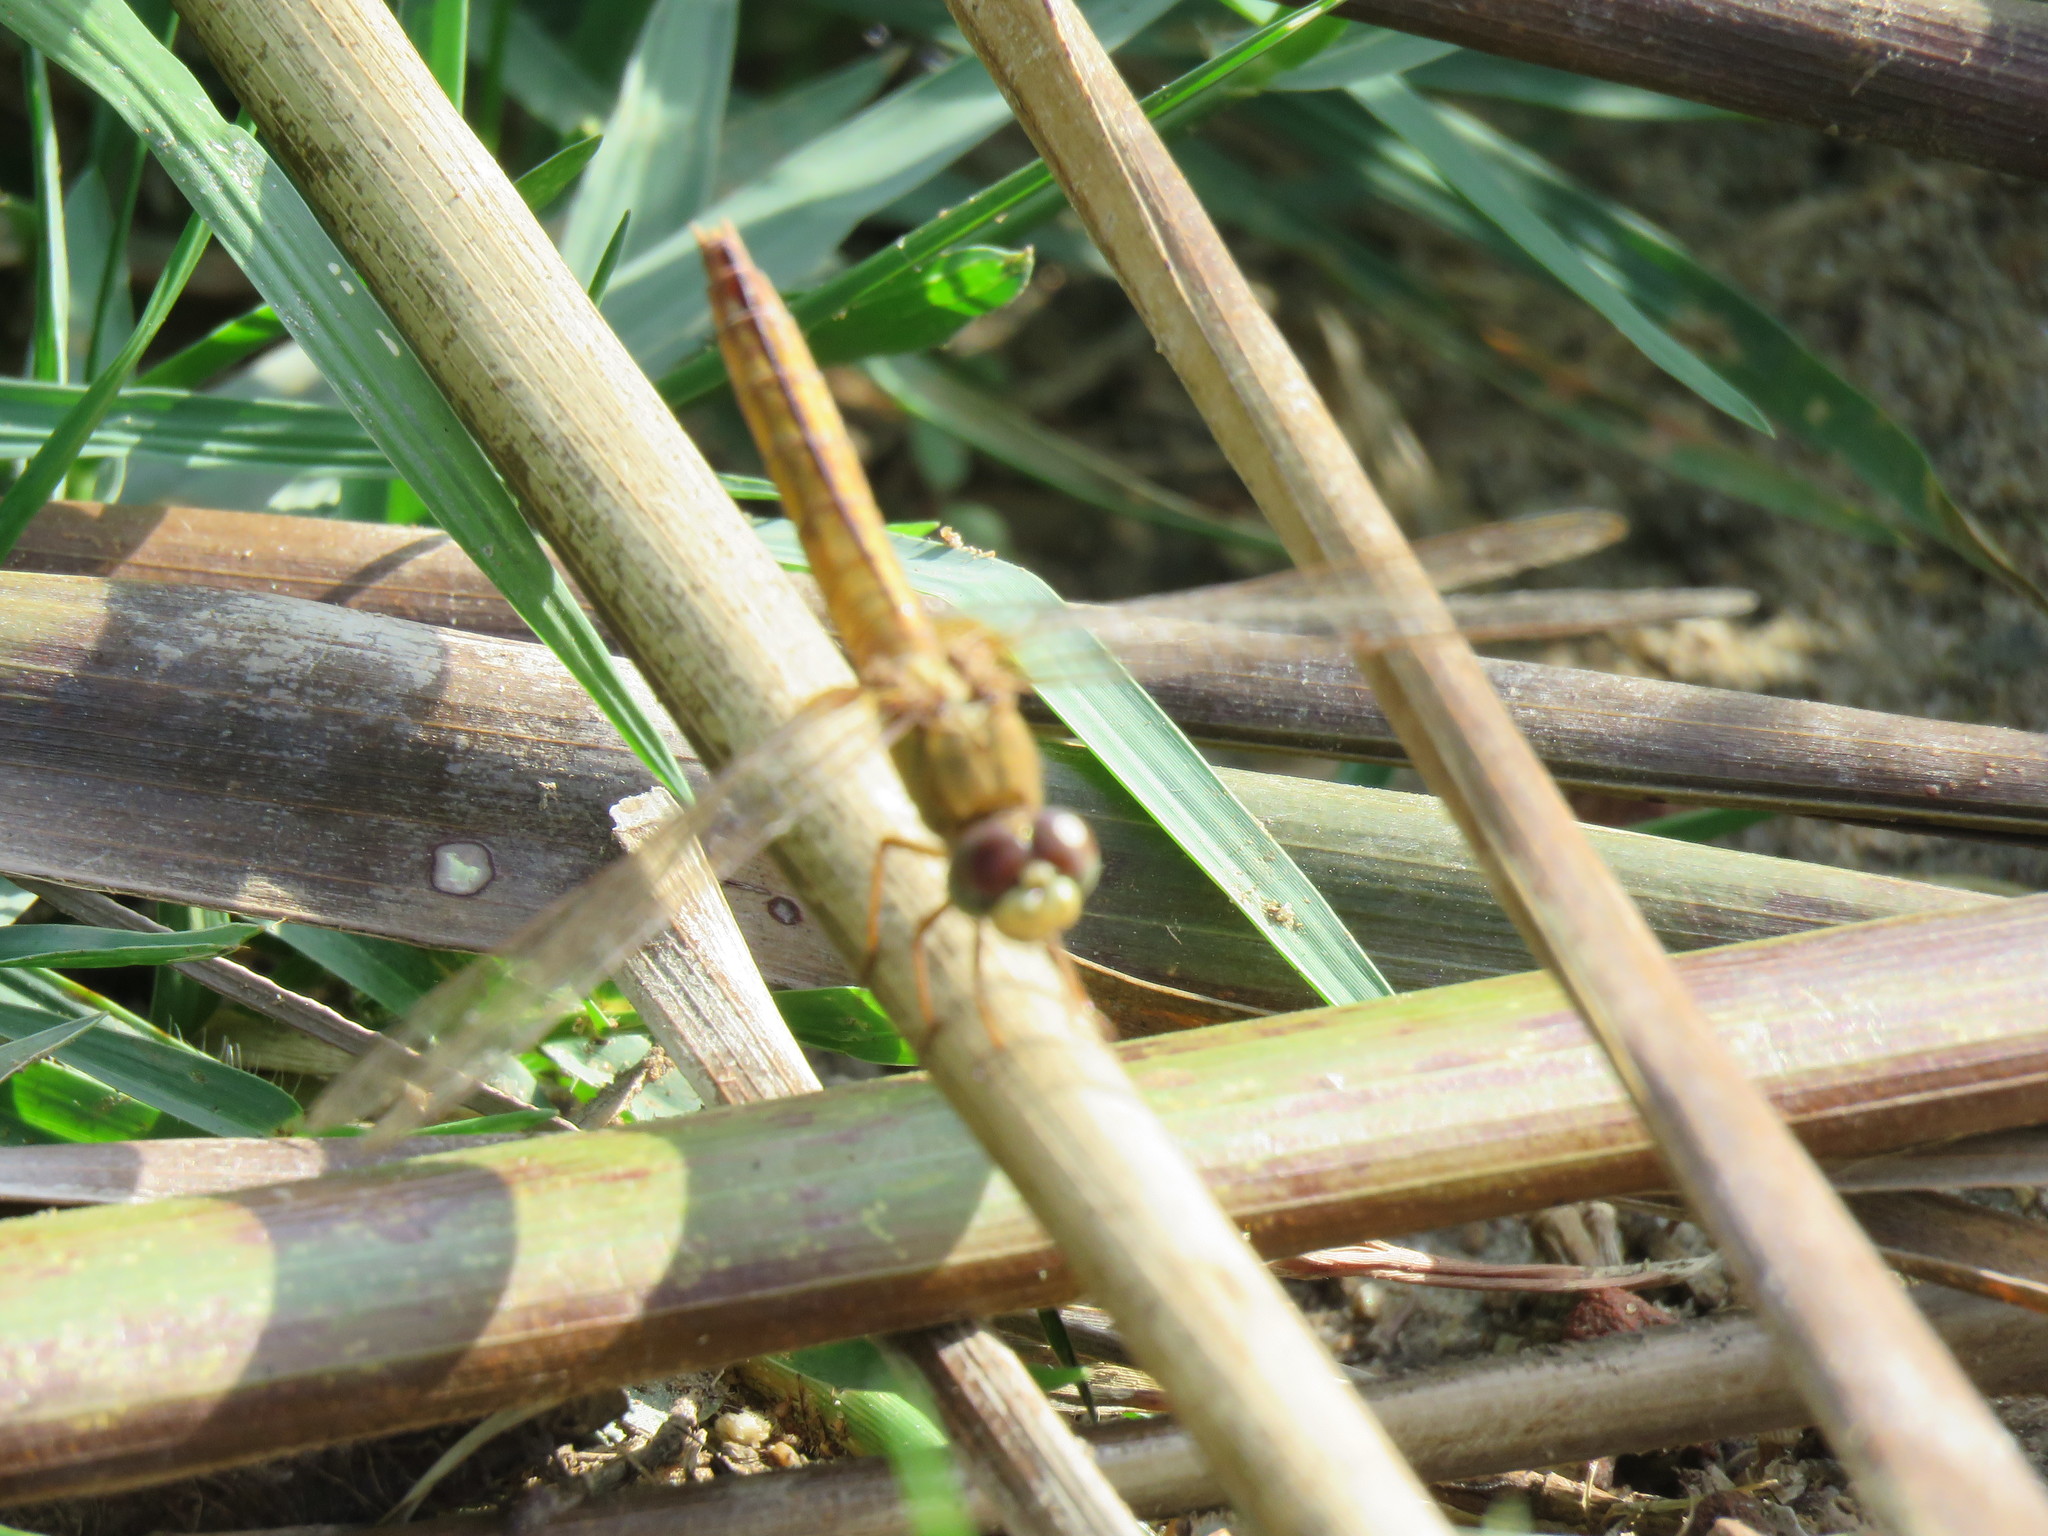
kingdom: Animalia
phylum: Arthropoda
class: Insecta
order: Odonata
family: Libellulidae
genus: Crocothemis
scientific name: Crocothemis servilia
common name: Scarlet skimmer
